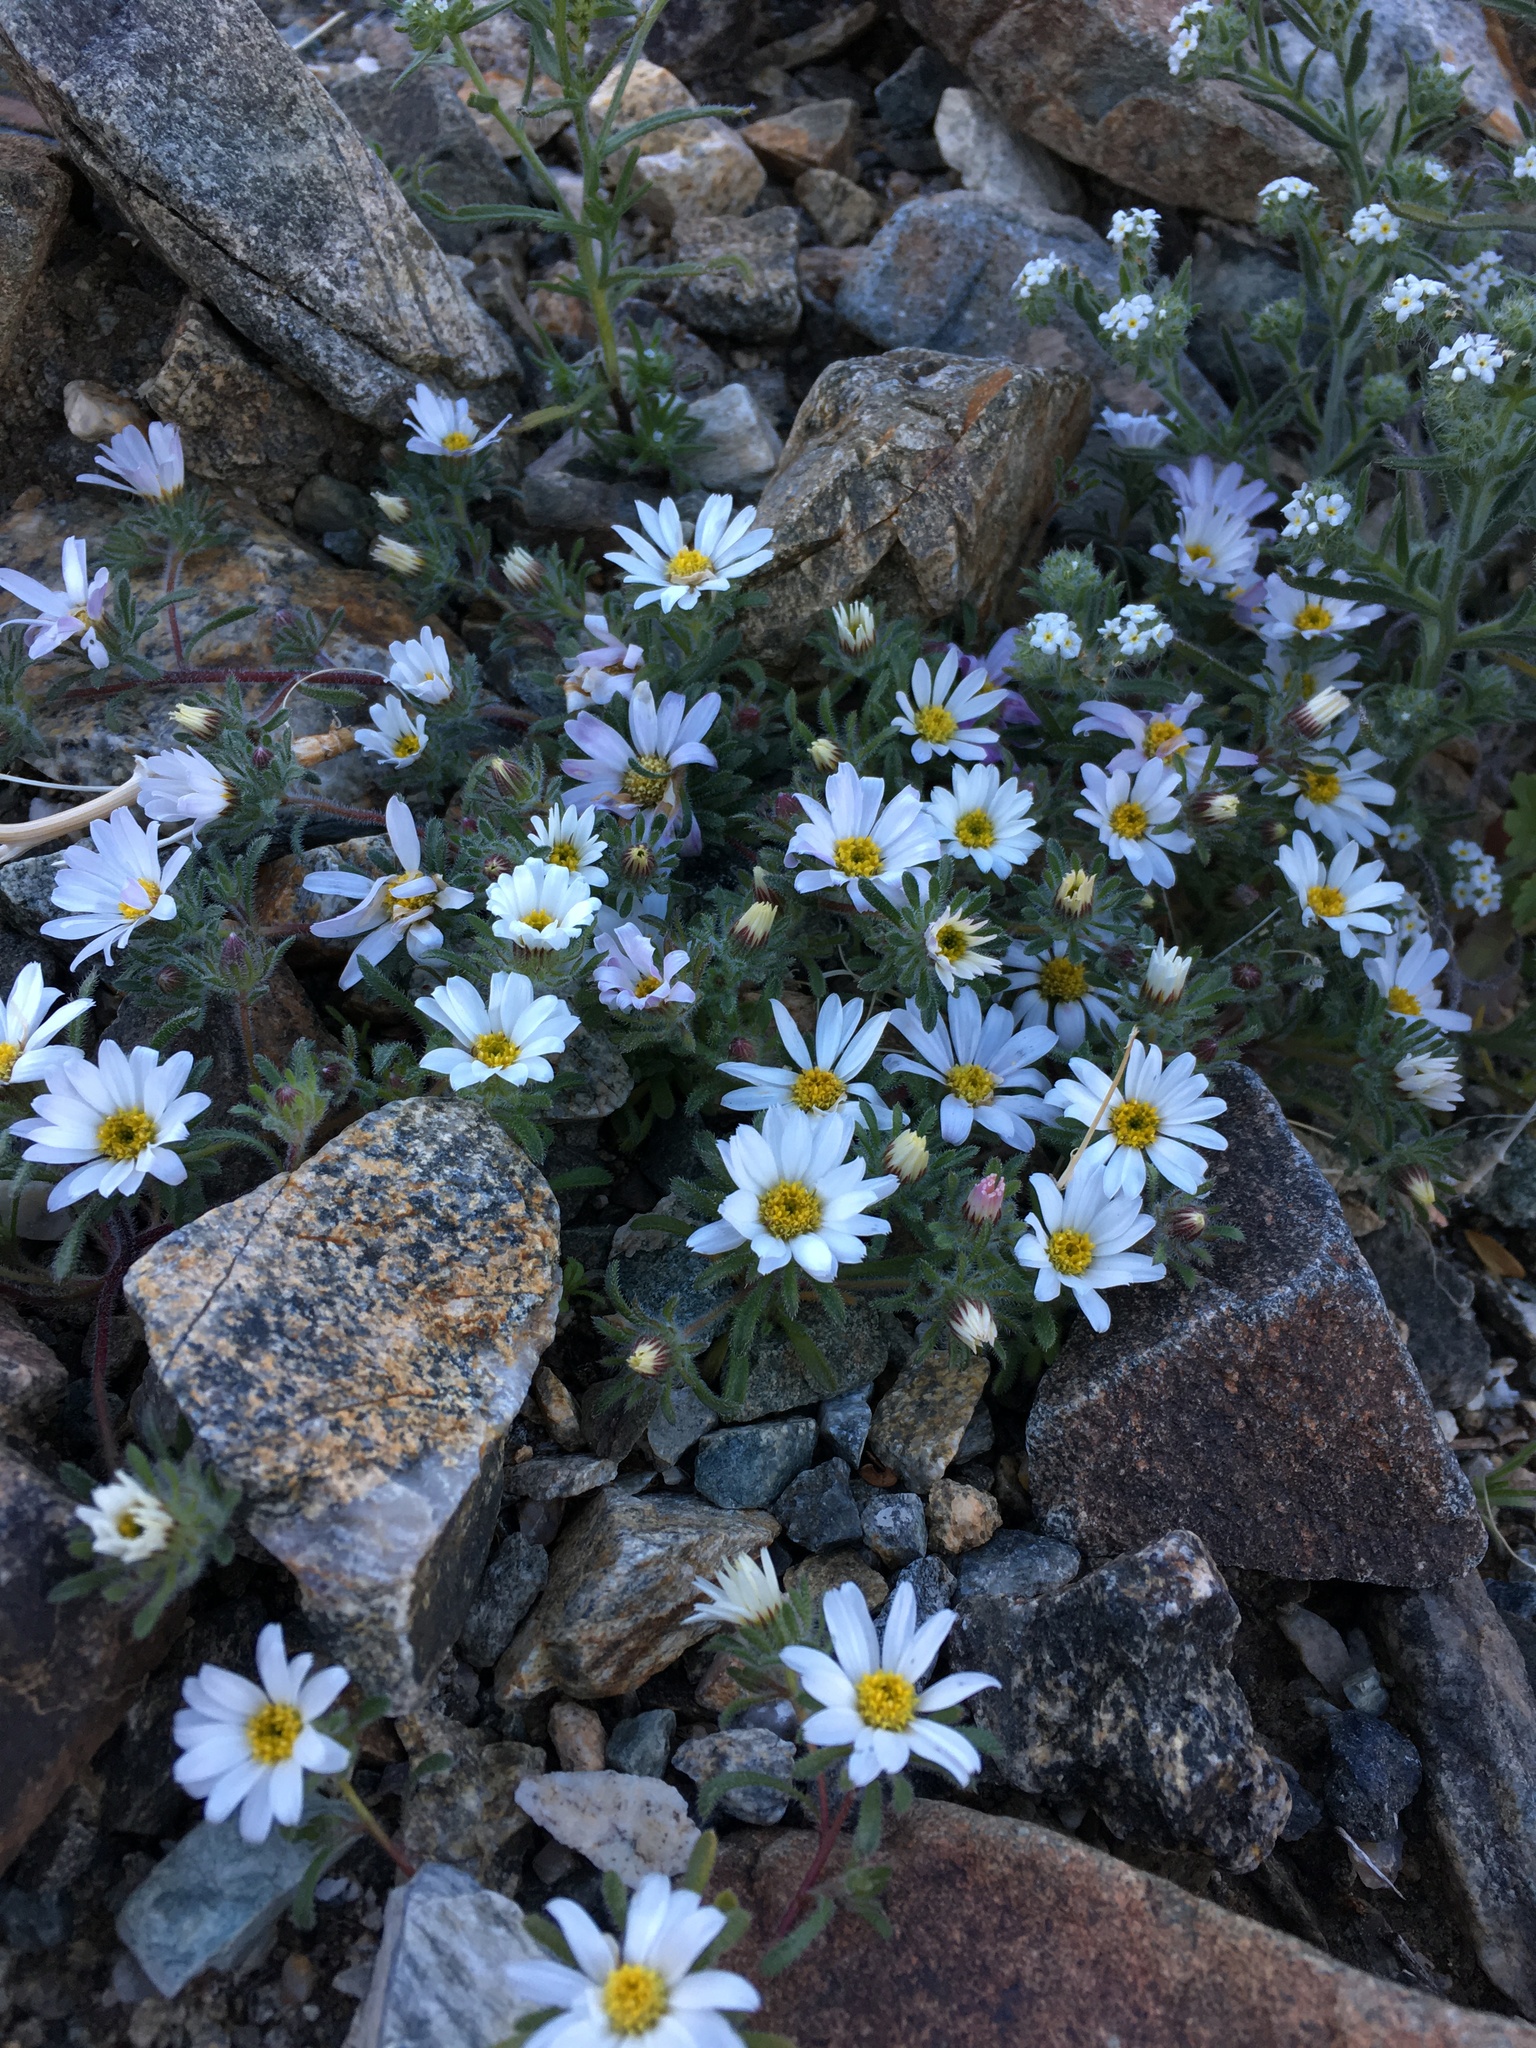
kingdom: Plantae
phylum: Tracheophyta
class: Magnoliopsida
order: Asterales
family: Asteraceae
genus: Monoptilon
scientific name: Monoptilon bellioides
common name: Bristly desertstar
